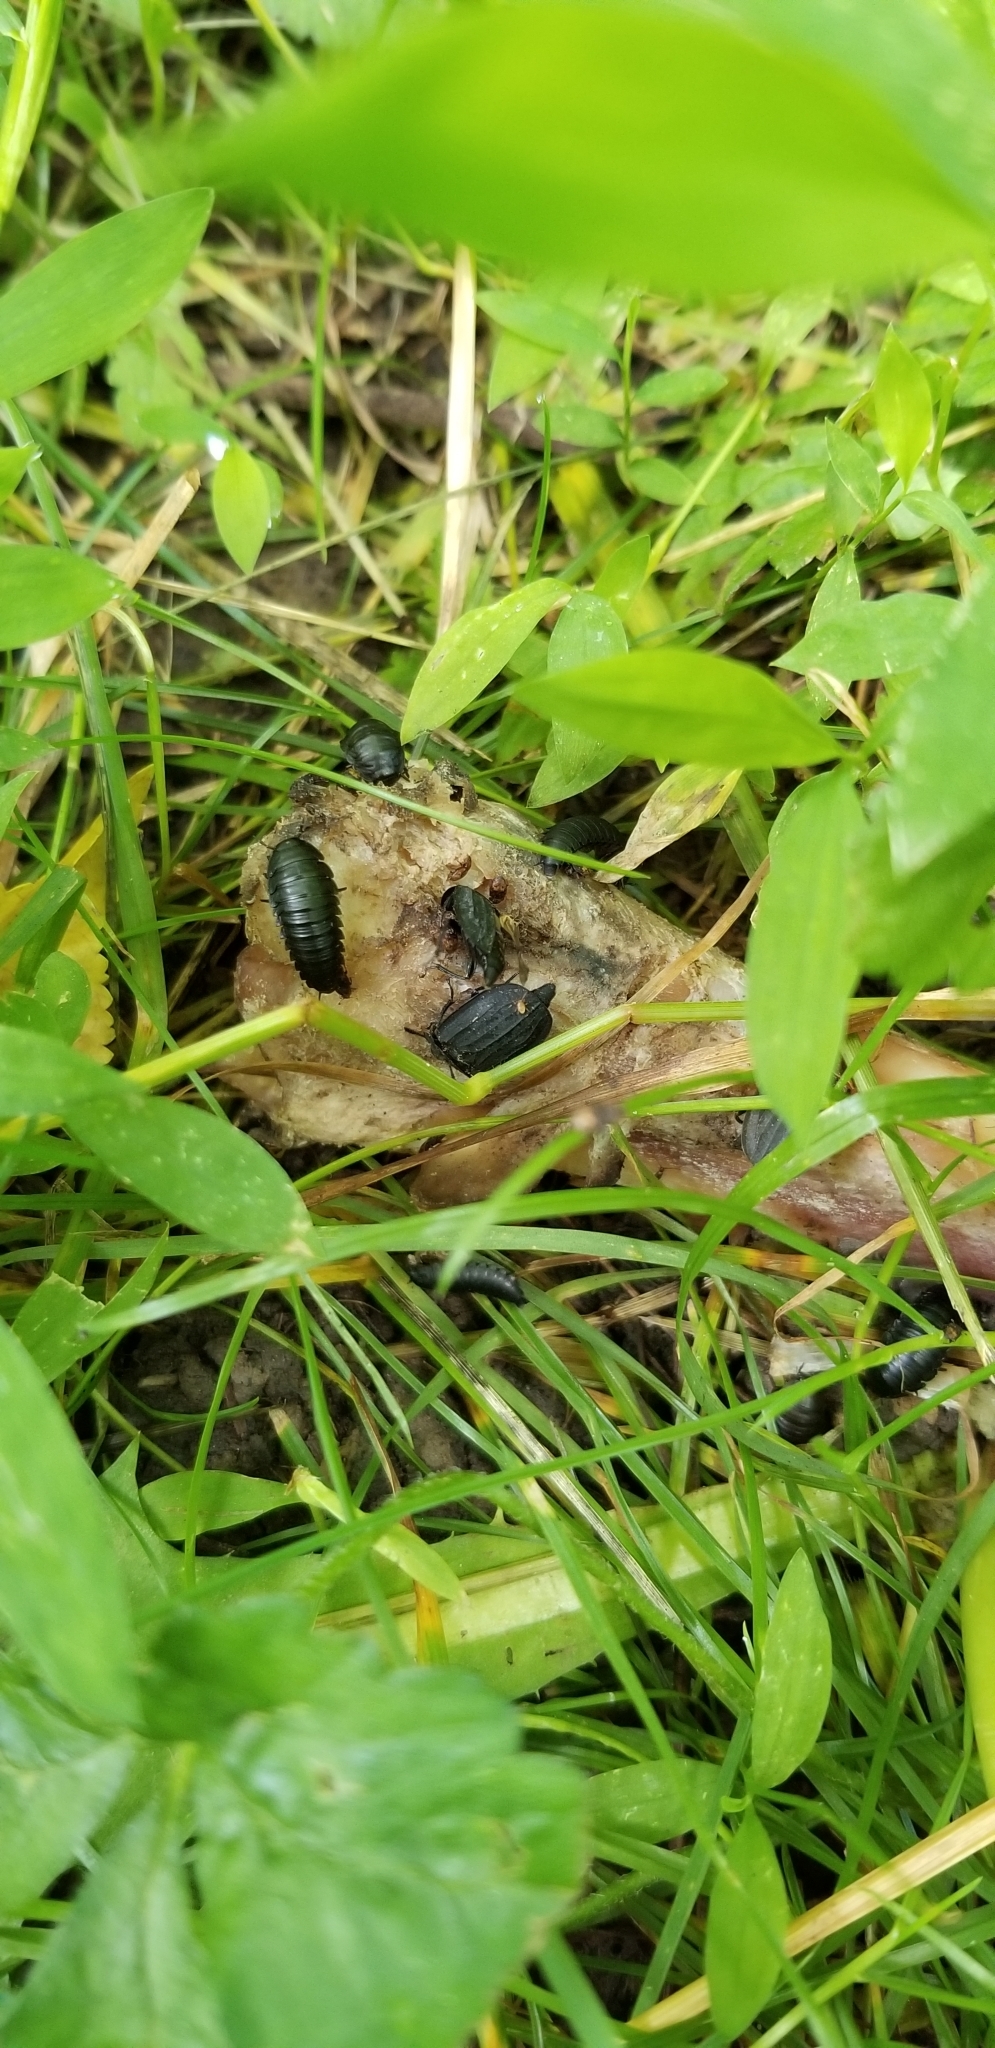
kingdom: Animalia
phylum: Arthropoda
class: Insecta
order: Coleoptera
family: Staphylinidae
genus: Oiceoptoma
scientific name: Oiceoptoma inaequale
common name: Ridged carrion beetle
